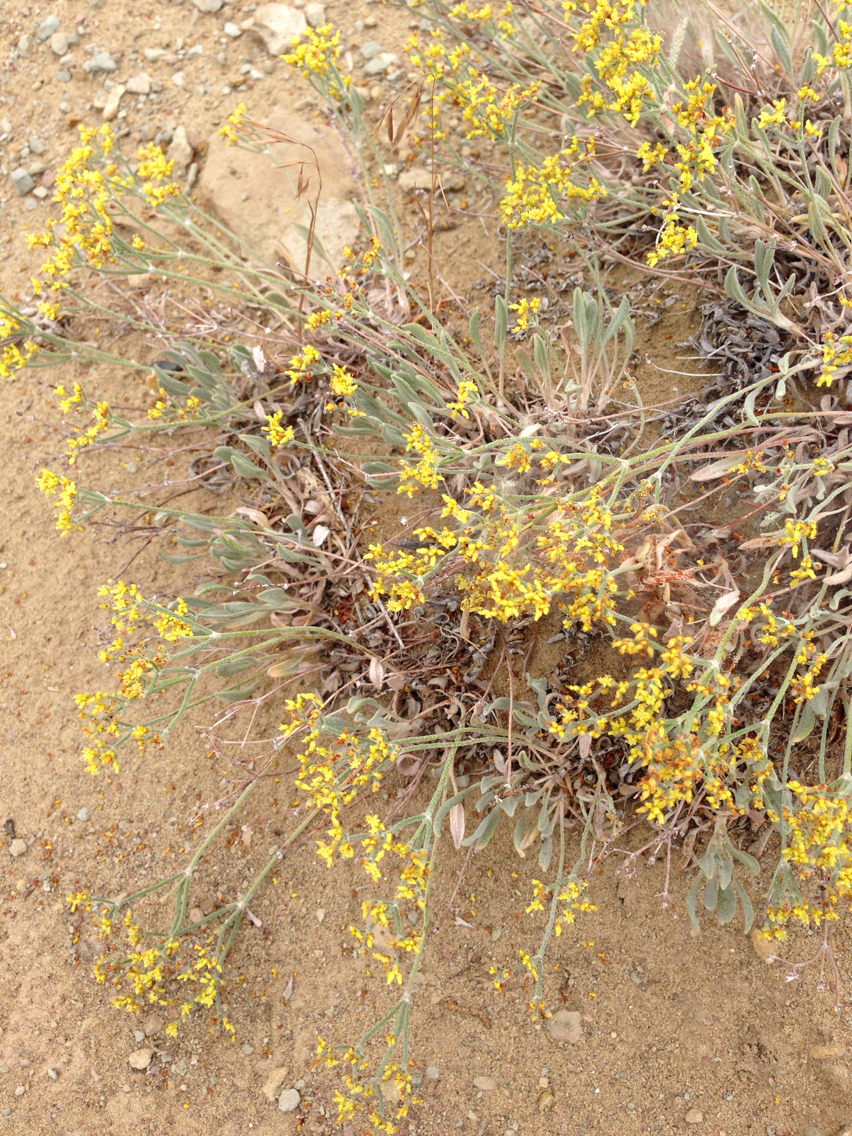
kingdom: Plantae
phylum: Tracheophyta
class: Magnoliopsida
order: Caryophyllales
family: Polygonaceae
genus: Eriogonum
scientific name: Eriogonum brevicaule
